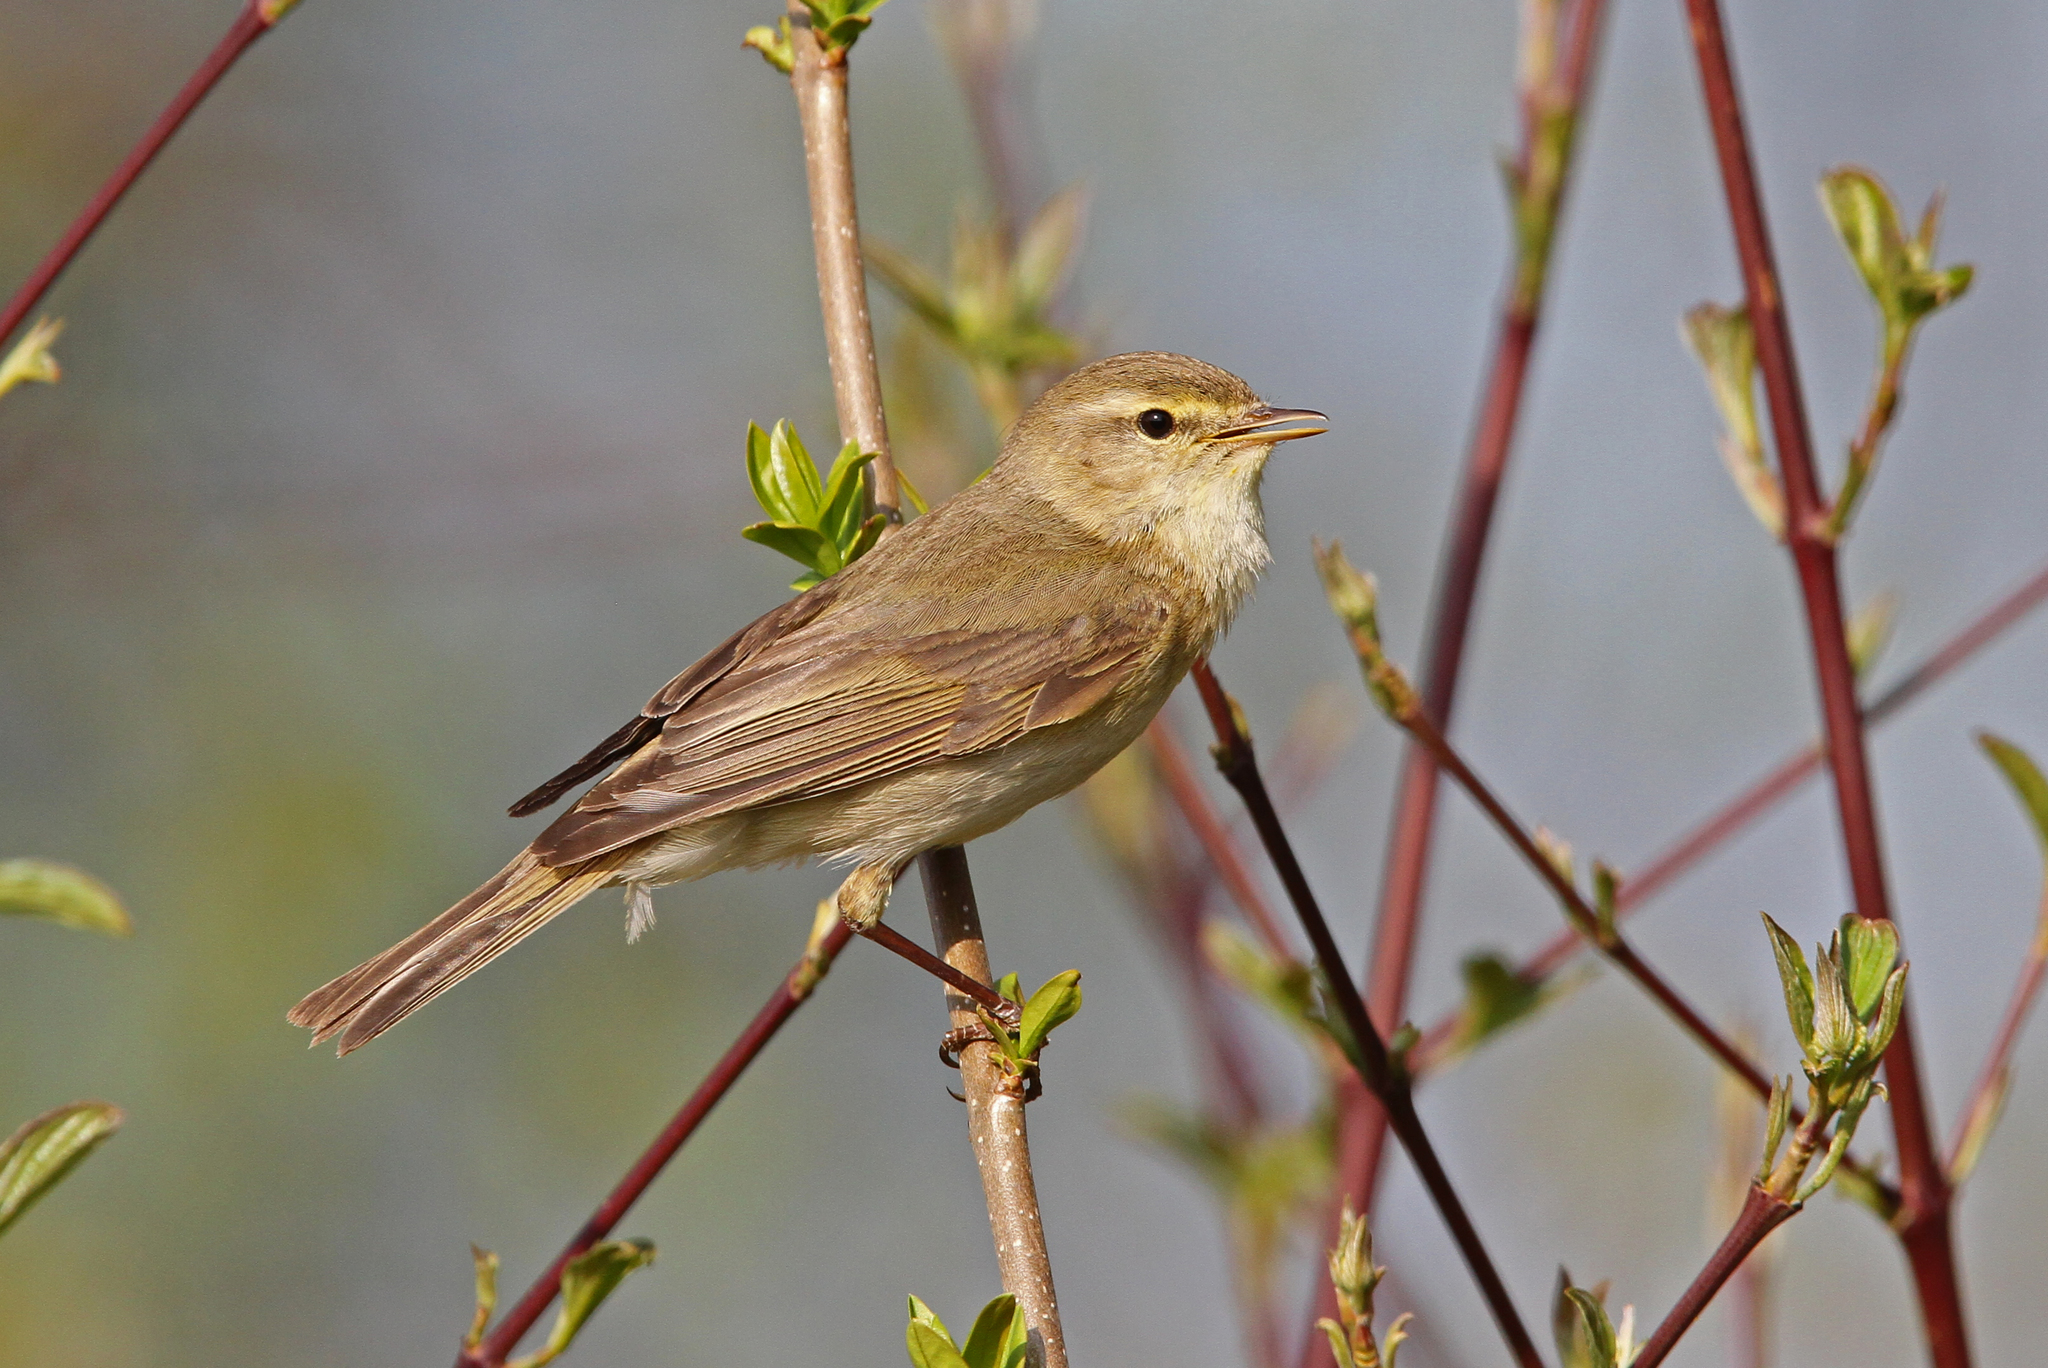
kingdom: Animalia
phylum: Chordata
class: Aves
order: Passeriformes
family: Phylloscopidae
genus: Phylloscopus
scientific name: Phylloscopus trochilus
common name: Willow warbler
